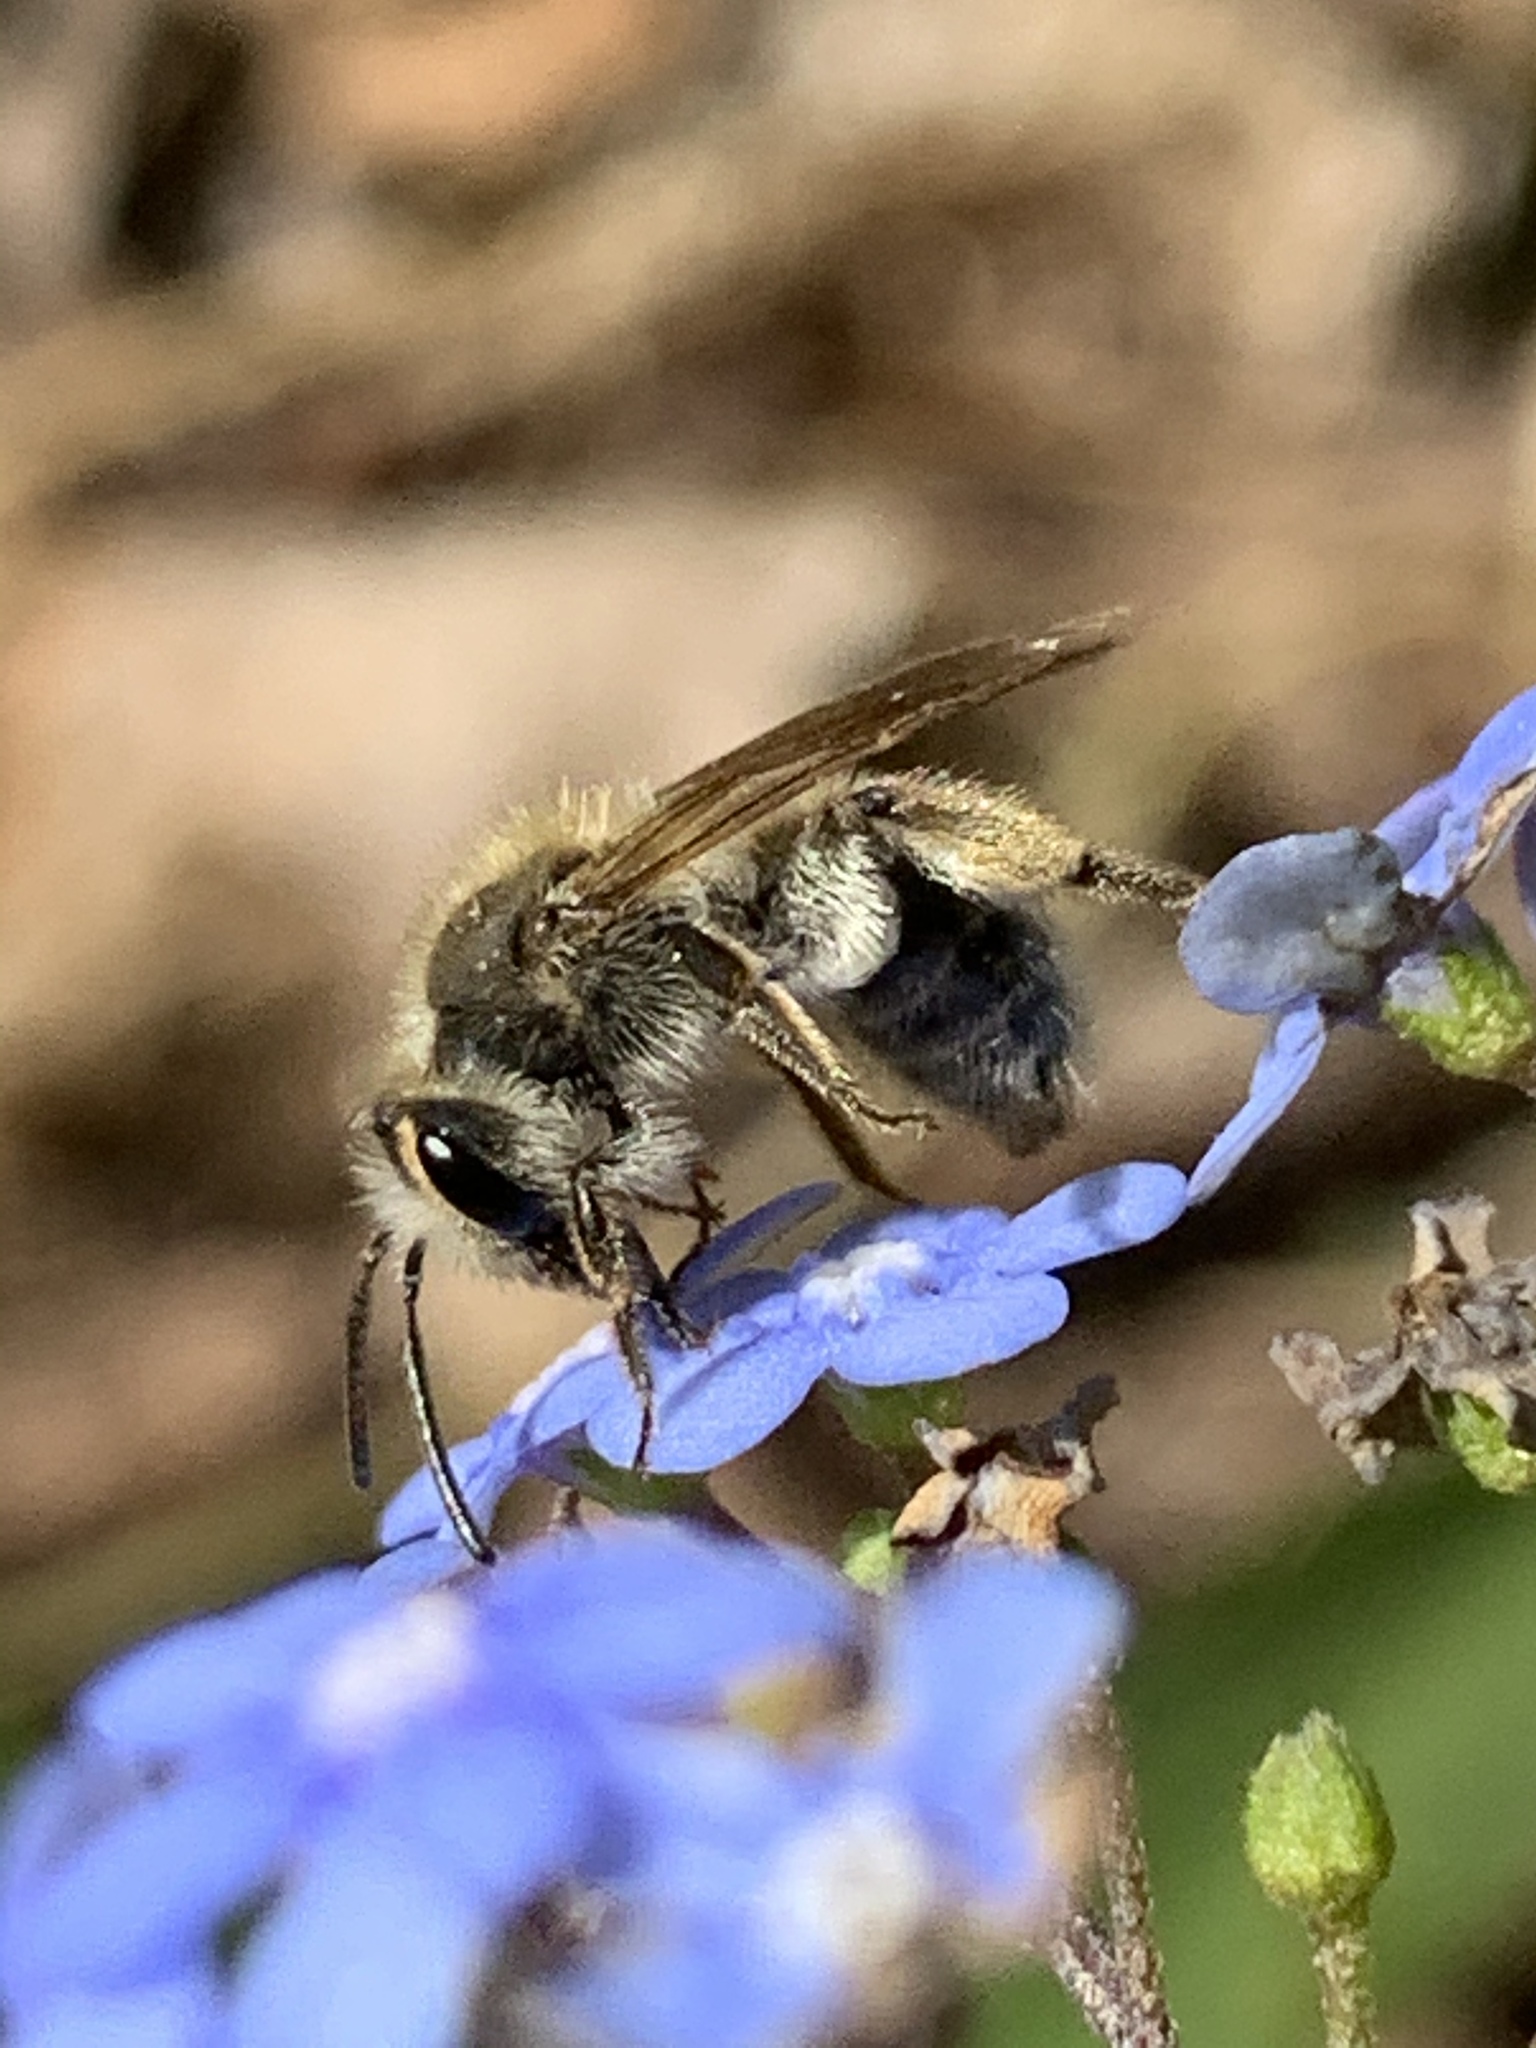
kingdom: Animalia
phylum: Arthropoda
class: Insecta
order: Hymenoptera
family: Andrenidae
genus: Andrena
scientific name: Andrena
